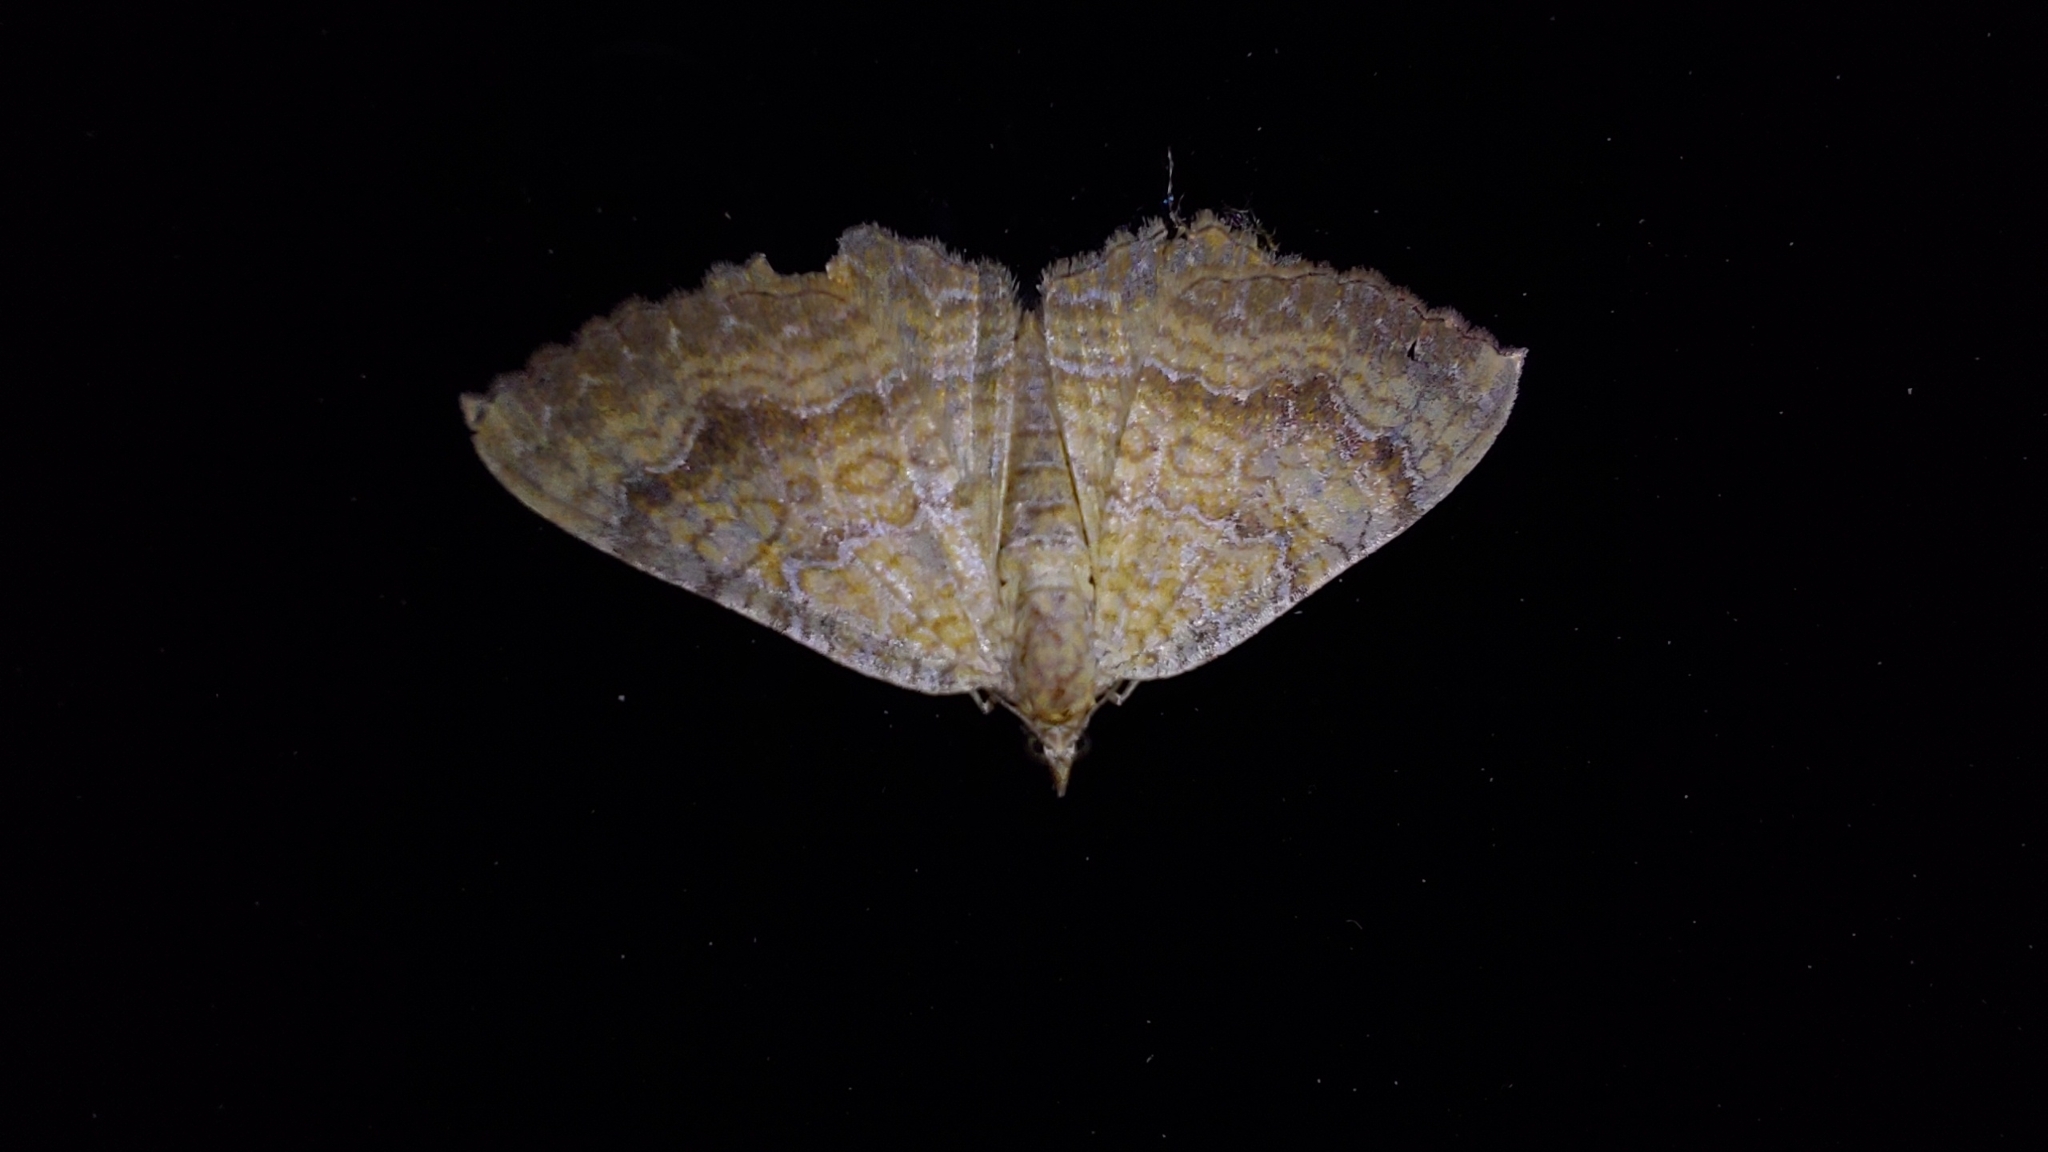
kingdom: Animalia
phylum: Arthropoda
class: Insecta
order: Lepidoptera
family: Geometridae
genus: Camptogramma
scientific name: Camptogramma bilineata
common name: Yellow shell
